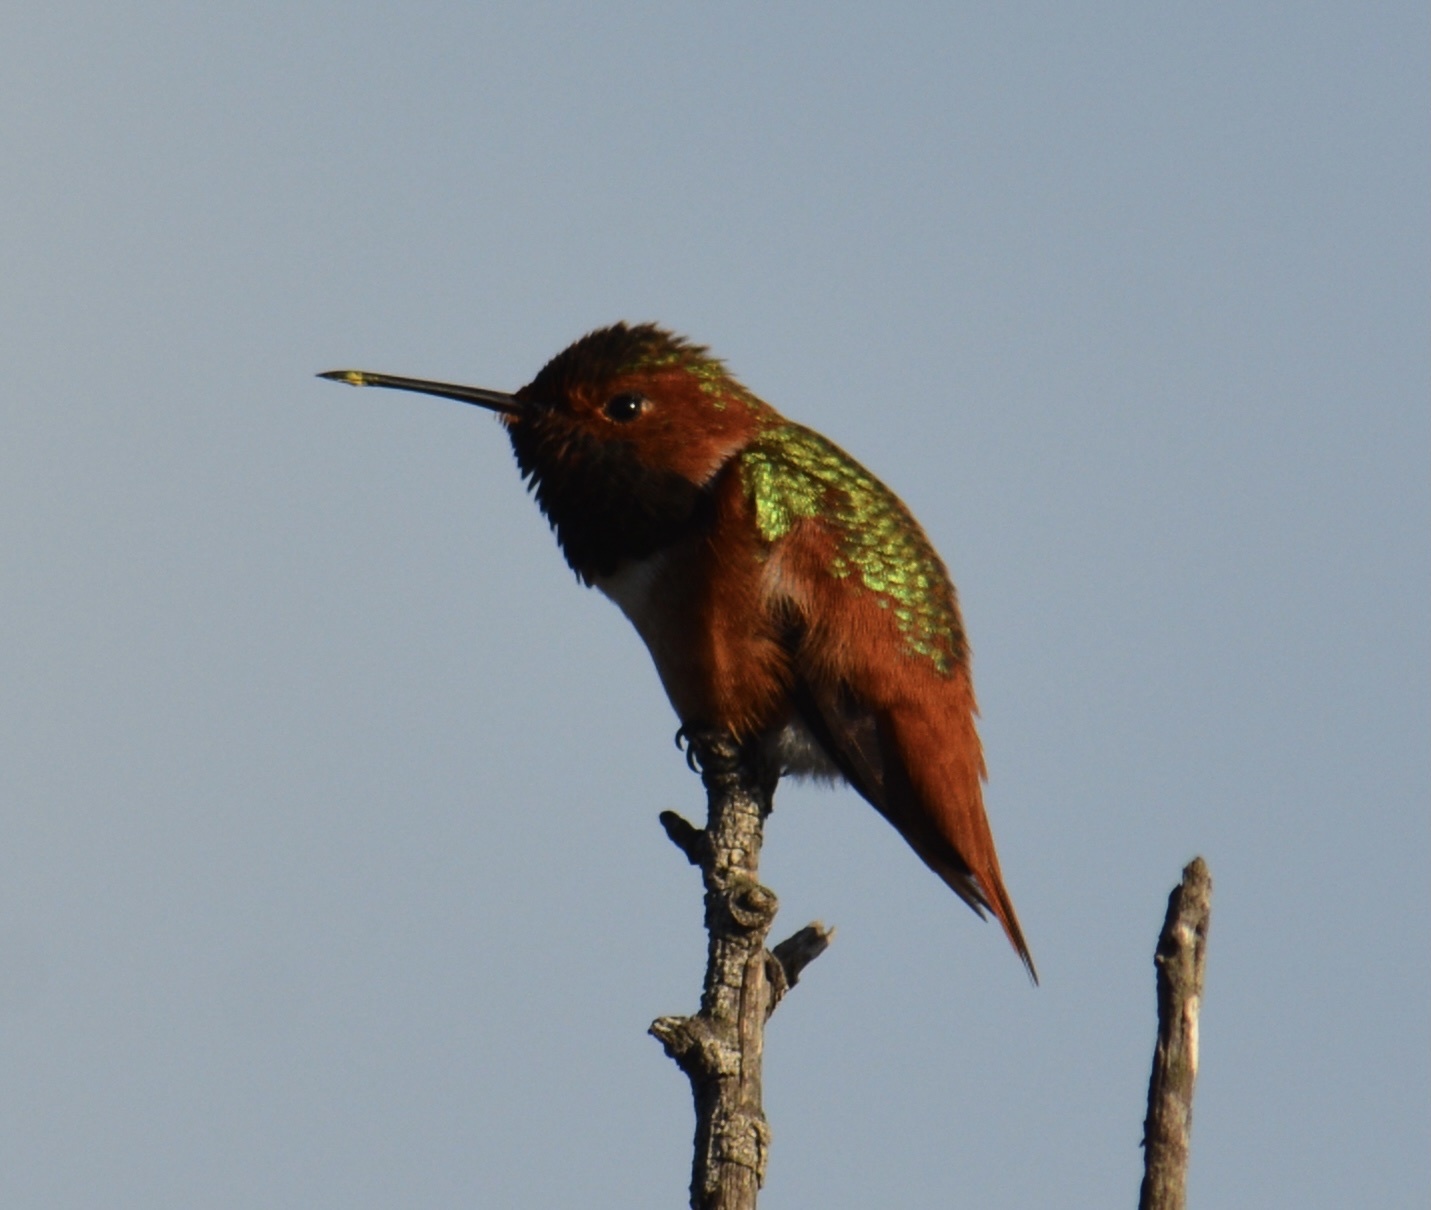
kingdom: Animalia
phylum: Chordata
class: Aves
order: Apodiformes
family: Trochilidae
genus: Selasphorus
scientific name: Selasphorus sasin
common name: Allen's hummingbird
